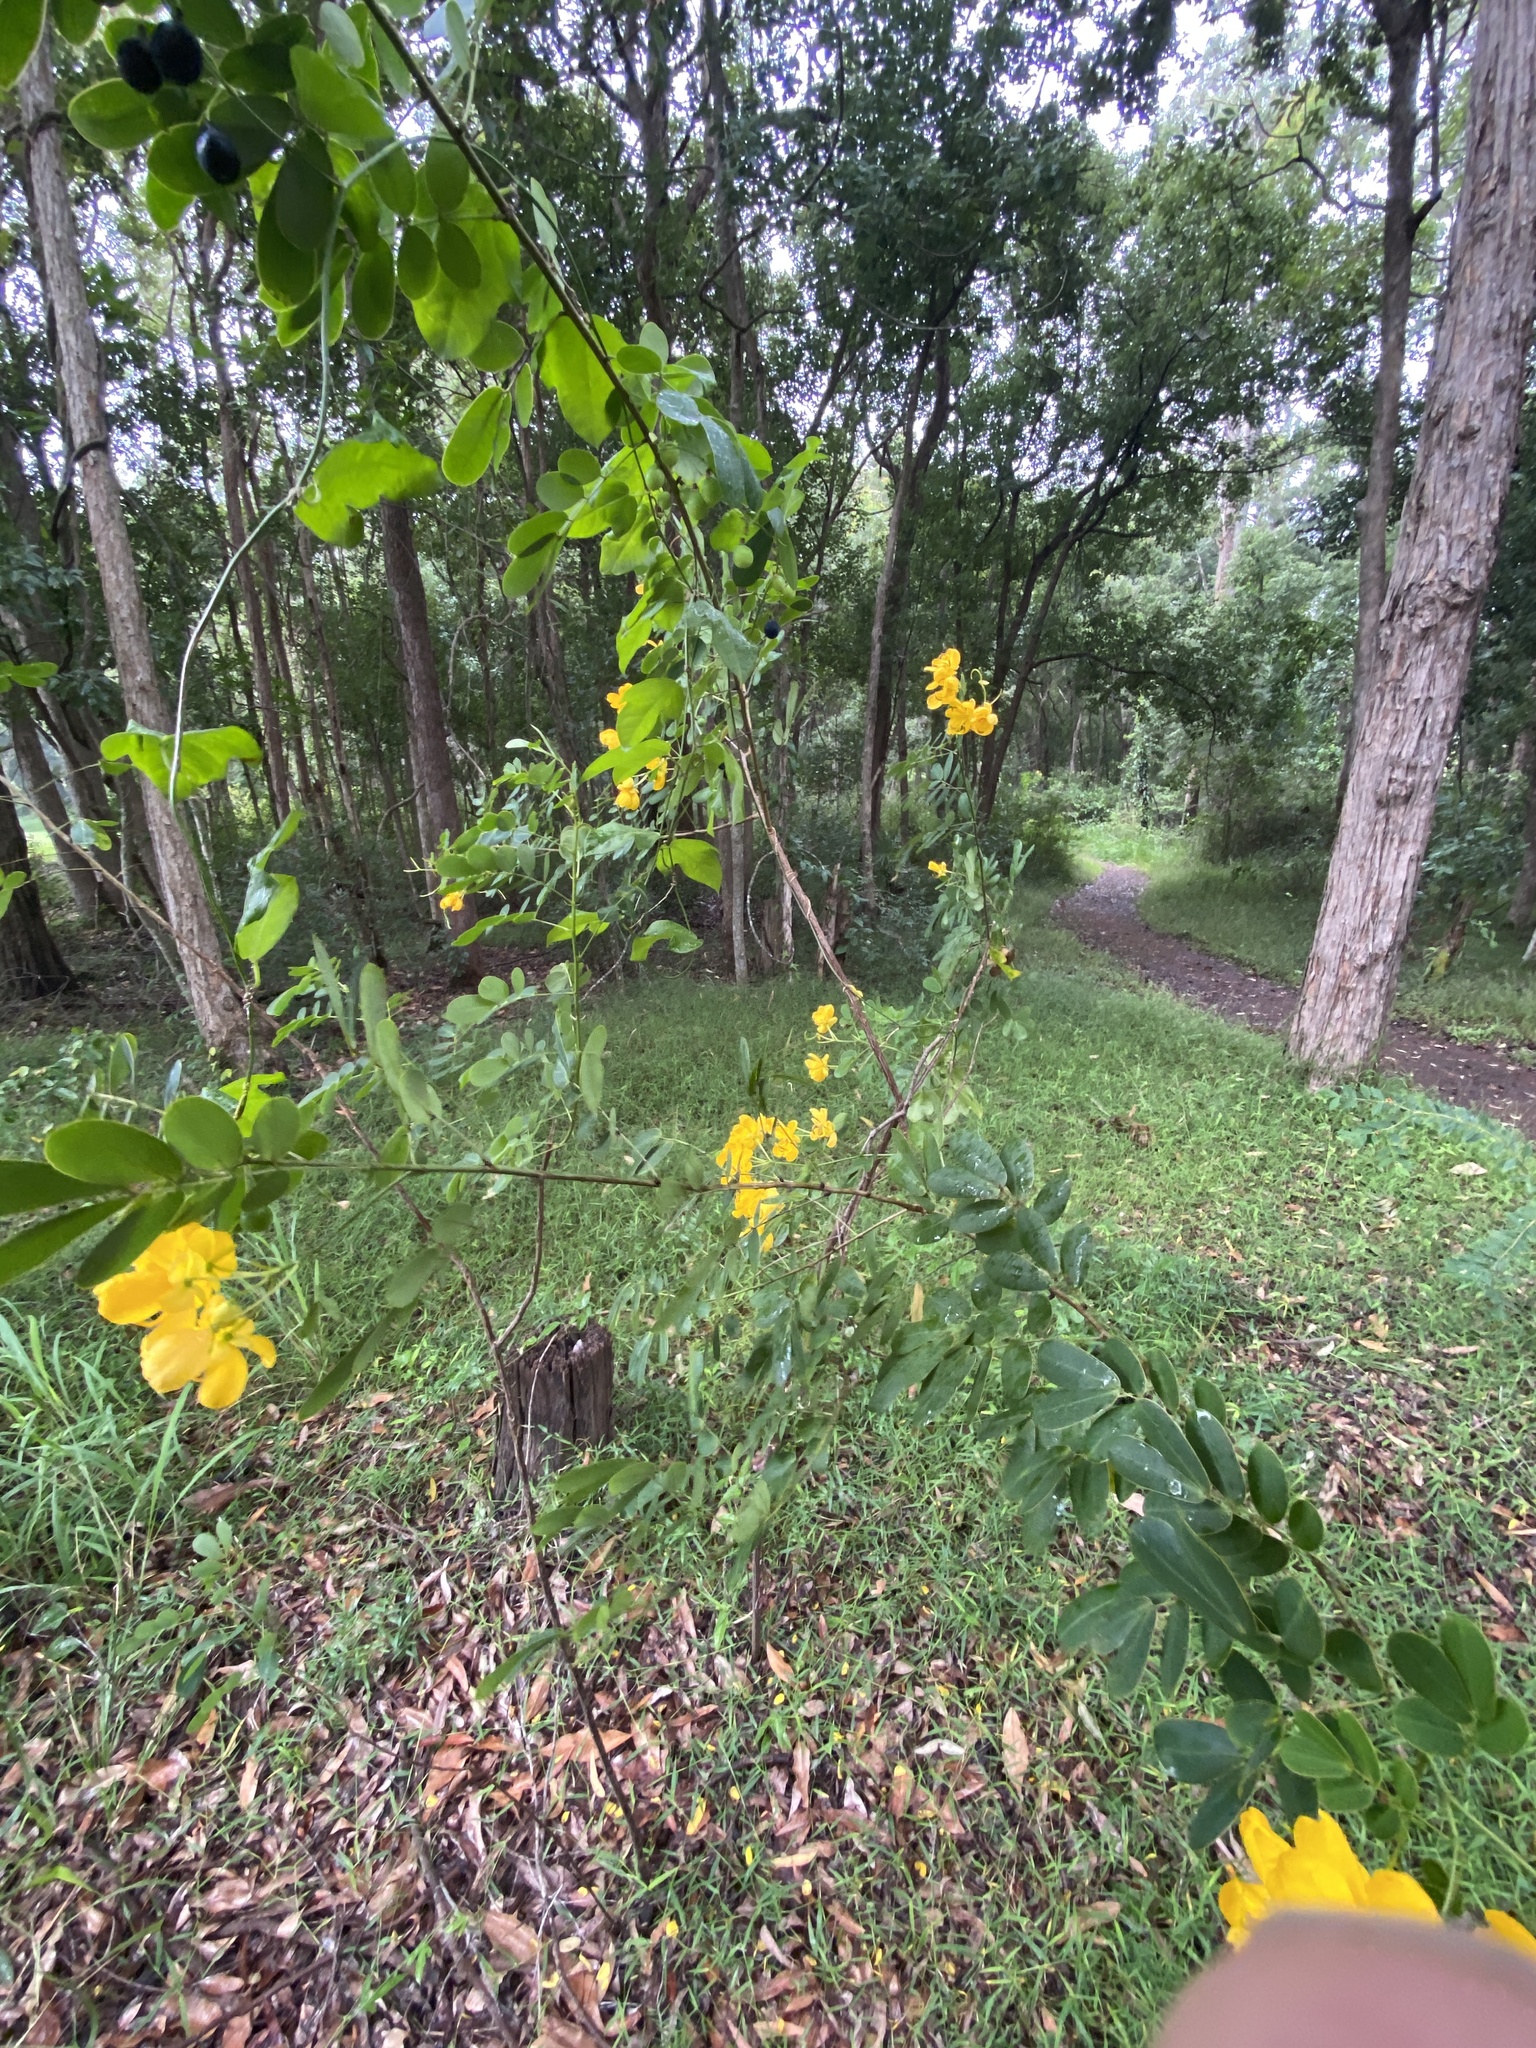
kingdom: Plantae
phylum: Tracheophyta
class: Magnoliopsida
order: Fabales
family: Fabaceae
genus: Senna
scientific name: Senna pendula
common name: Easter cassia
